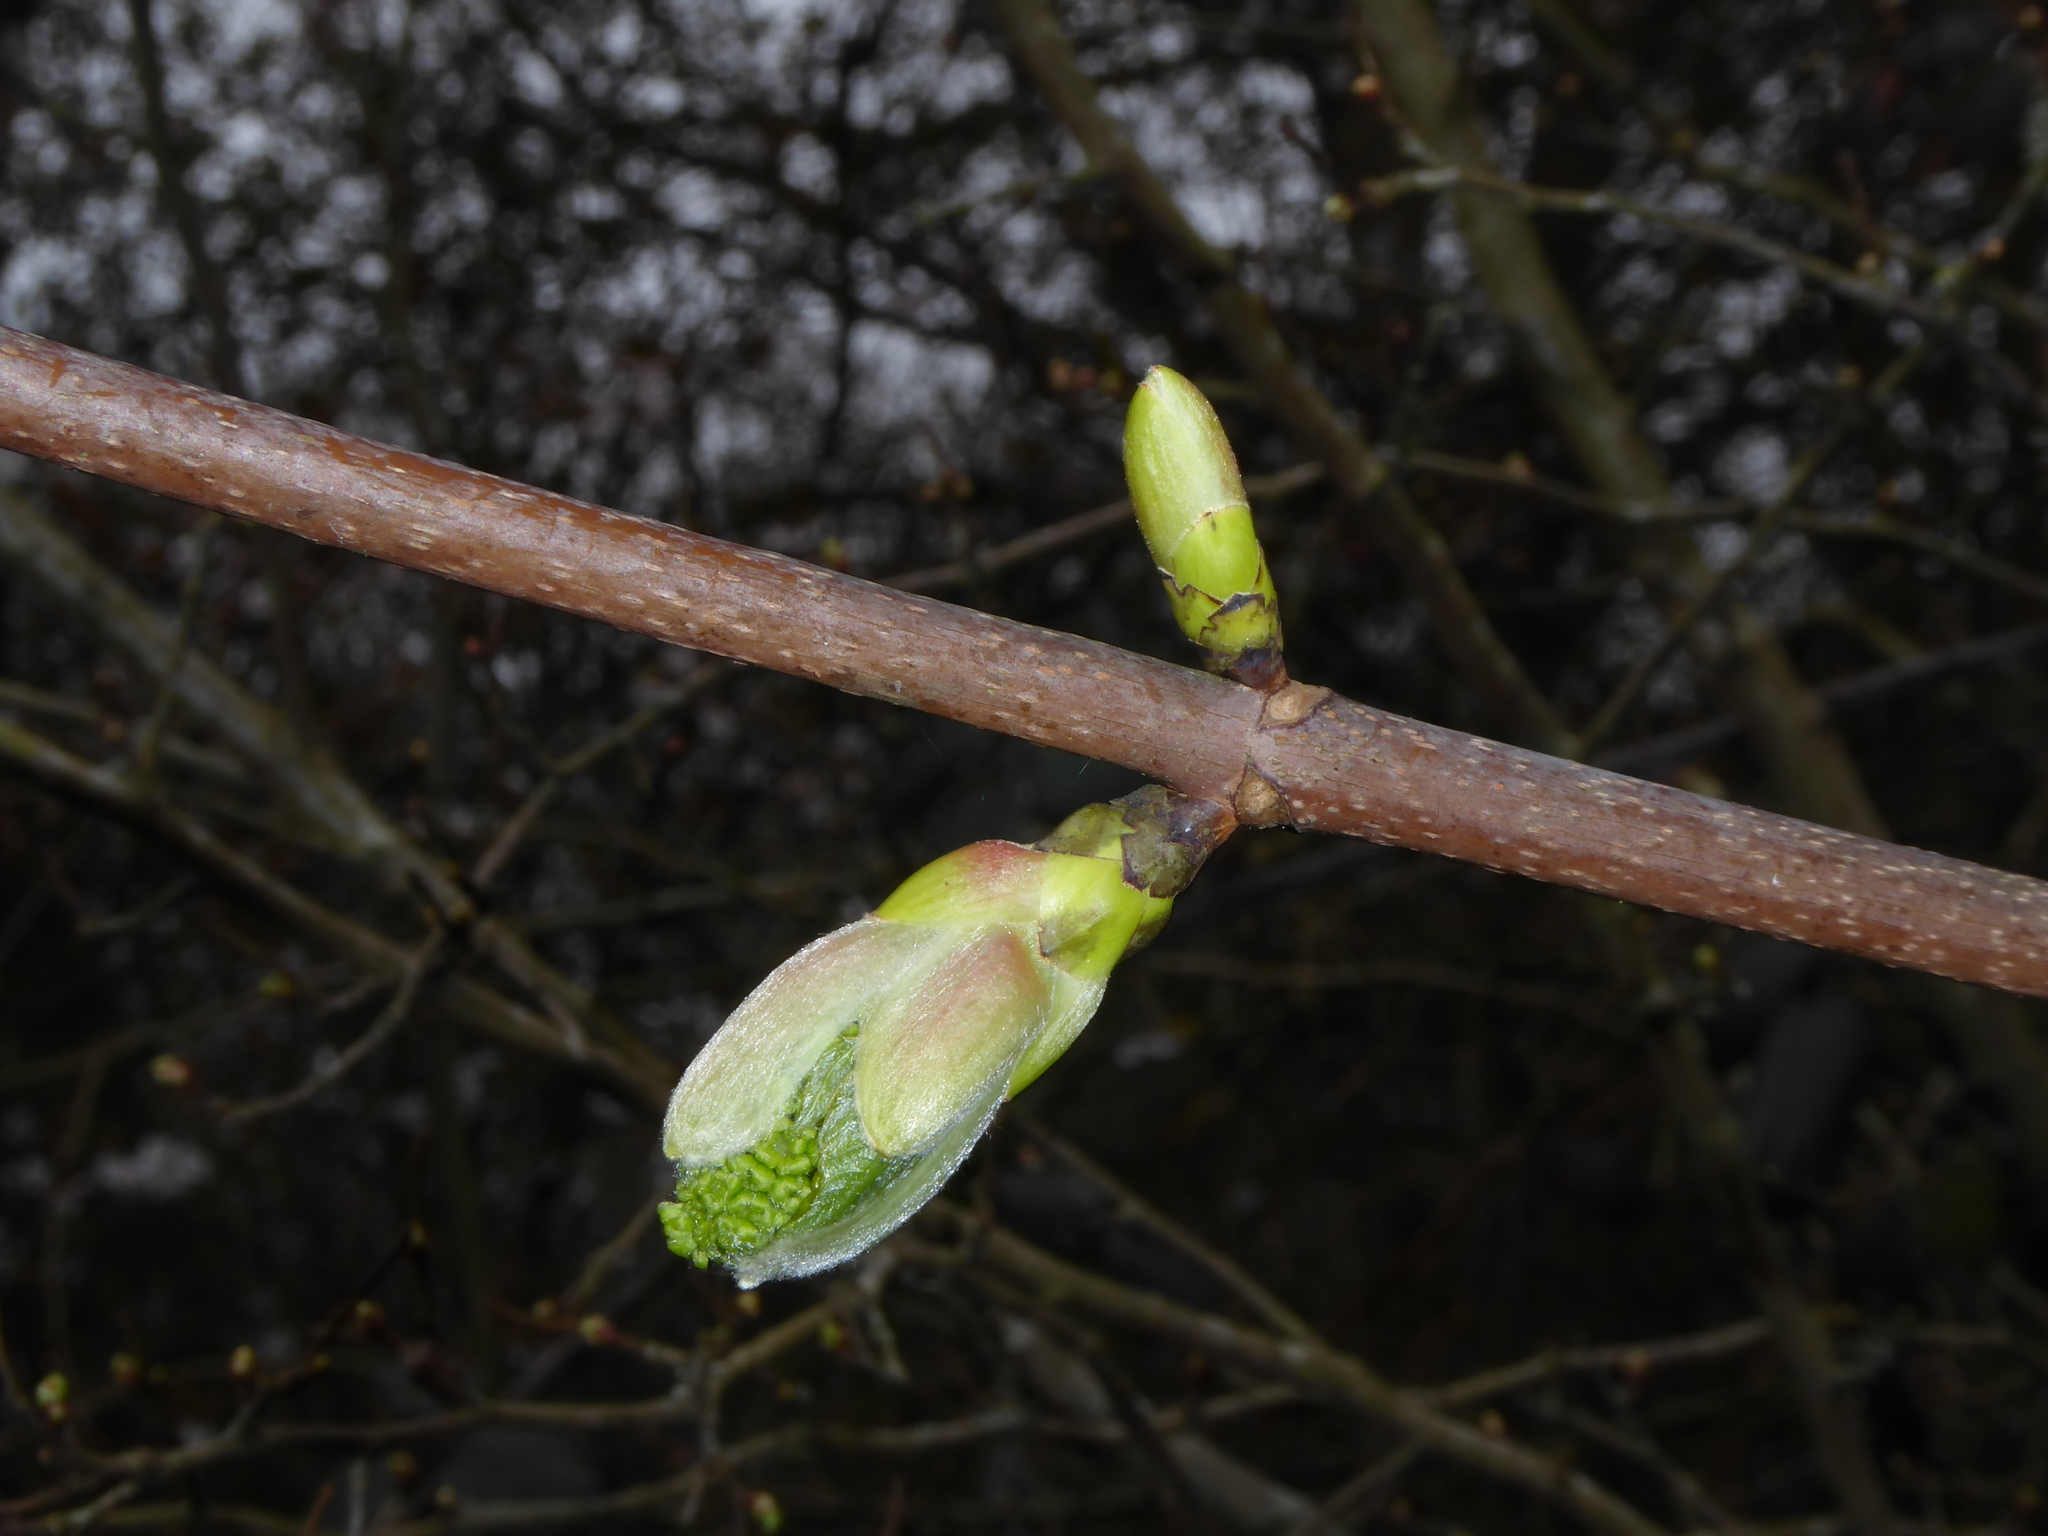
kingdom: Plantae
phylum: Tracheophyta
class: Magnoliopsida
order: Sapindales
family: Sapindaceae
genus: Acer
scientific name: Acer pseudoplatanus
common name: Sycamore
